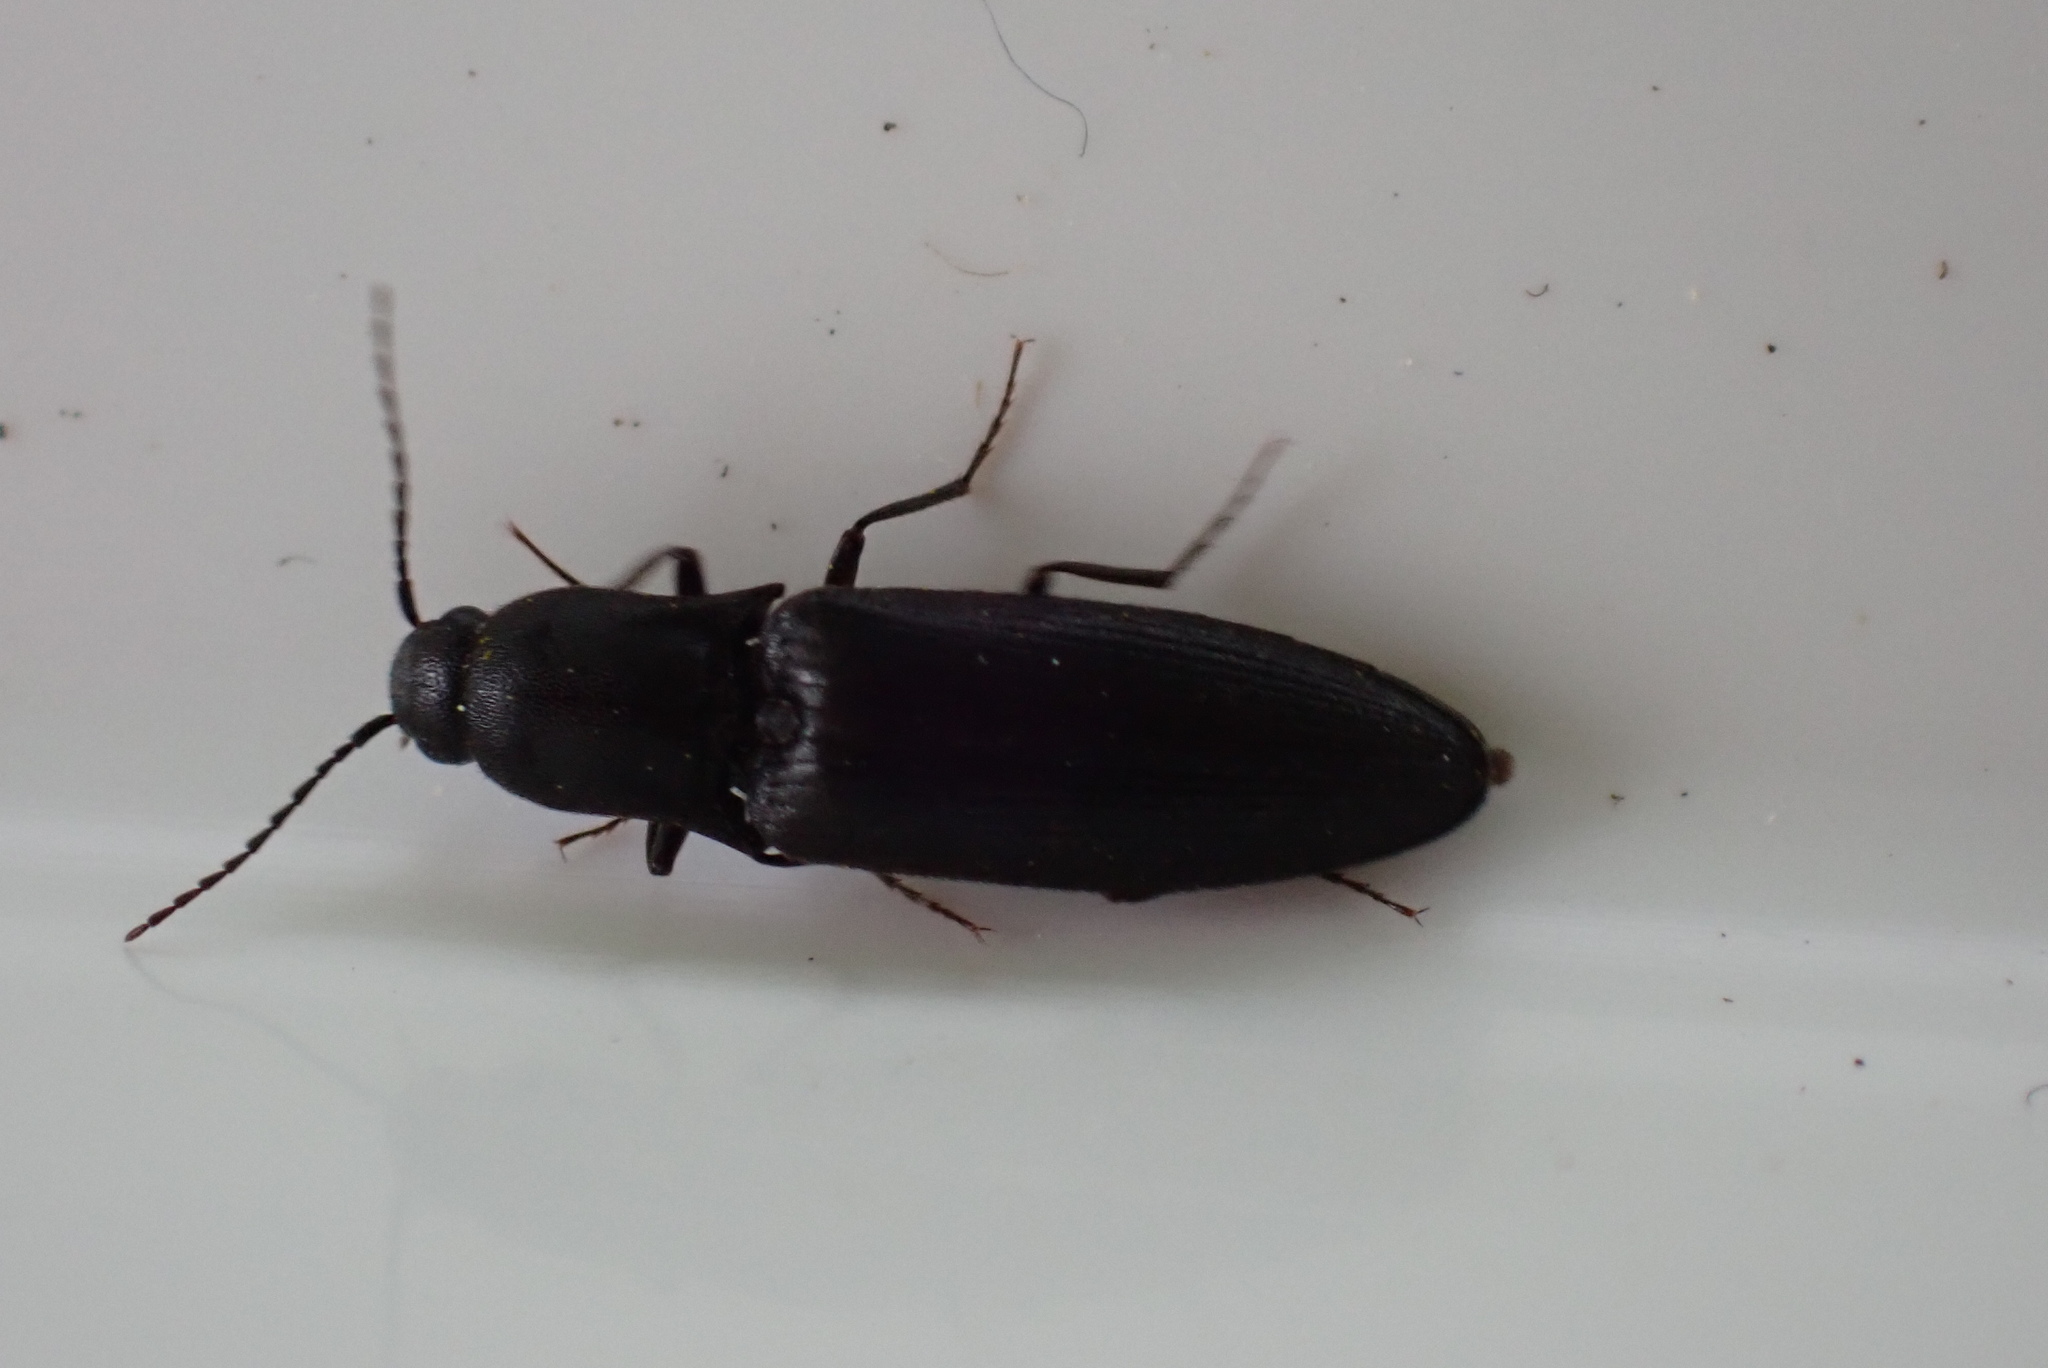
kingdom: Animalia
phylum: Arthropoda
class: Insecta
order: Coleoptera
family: Elateridae
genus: Ectinus
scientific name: Ectinus aterrimus
